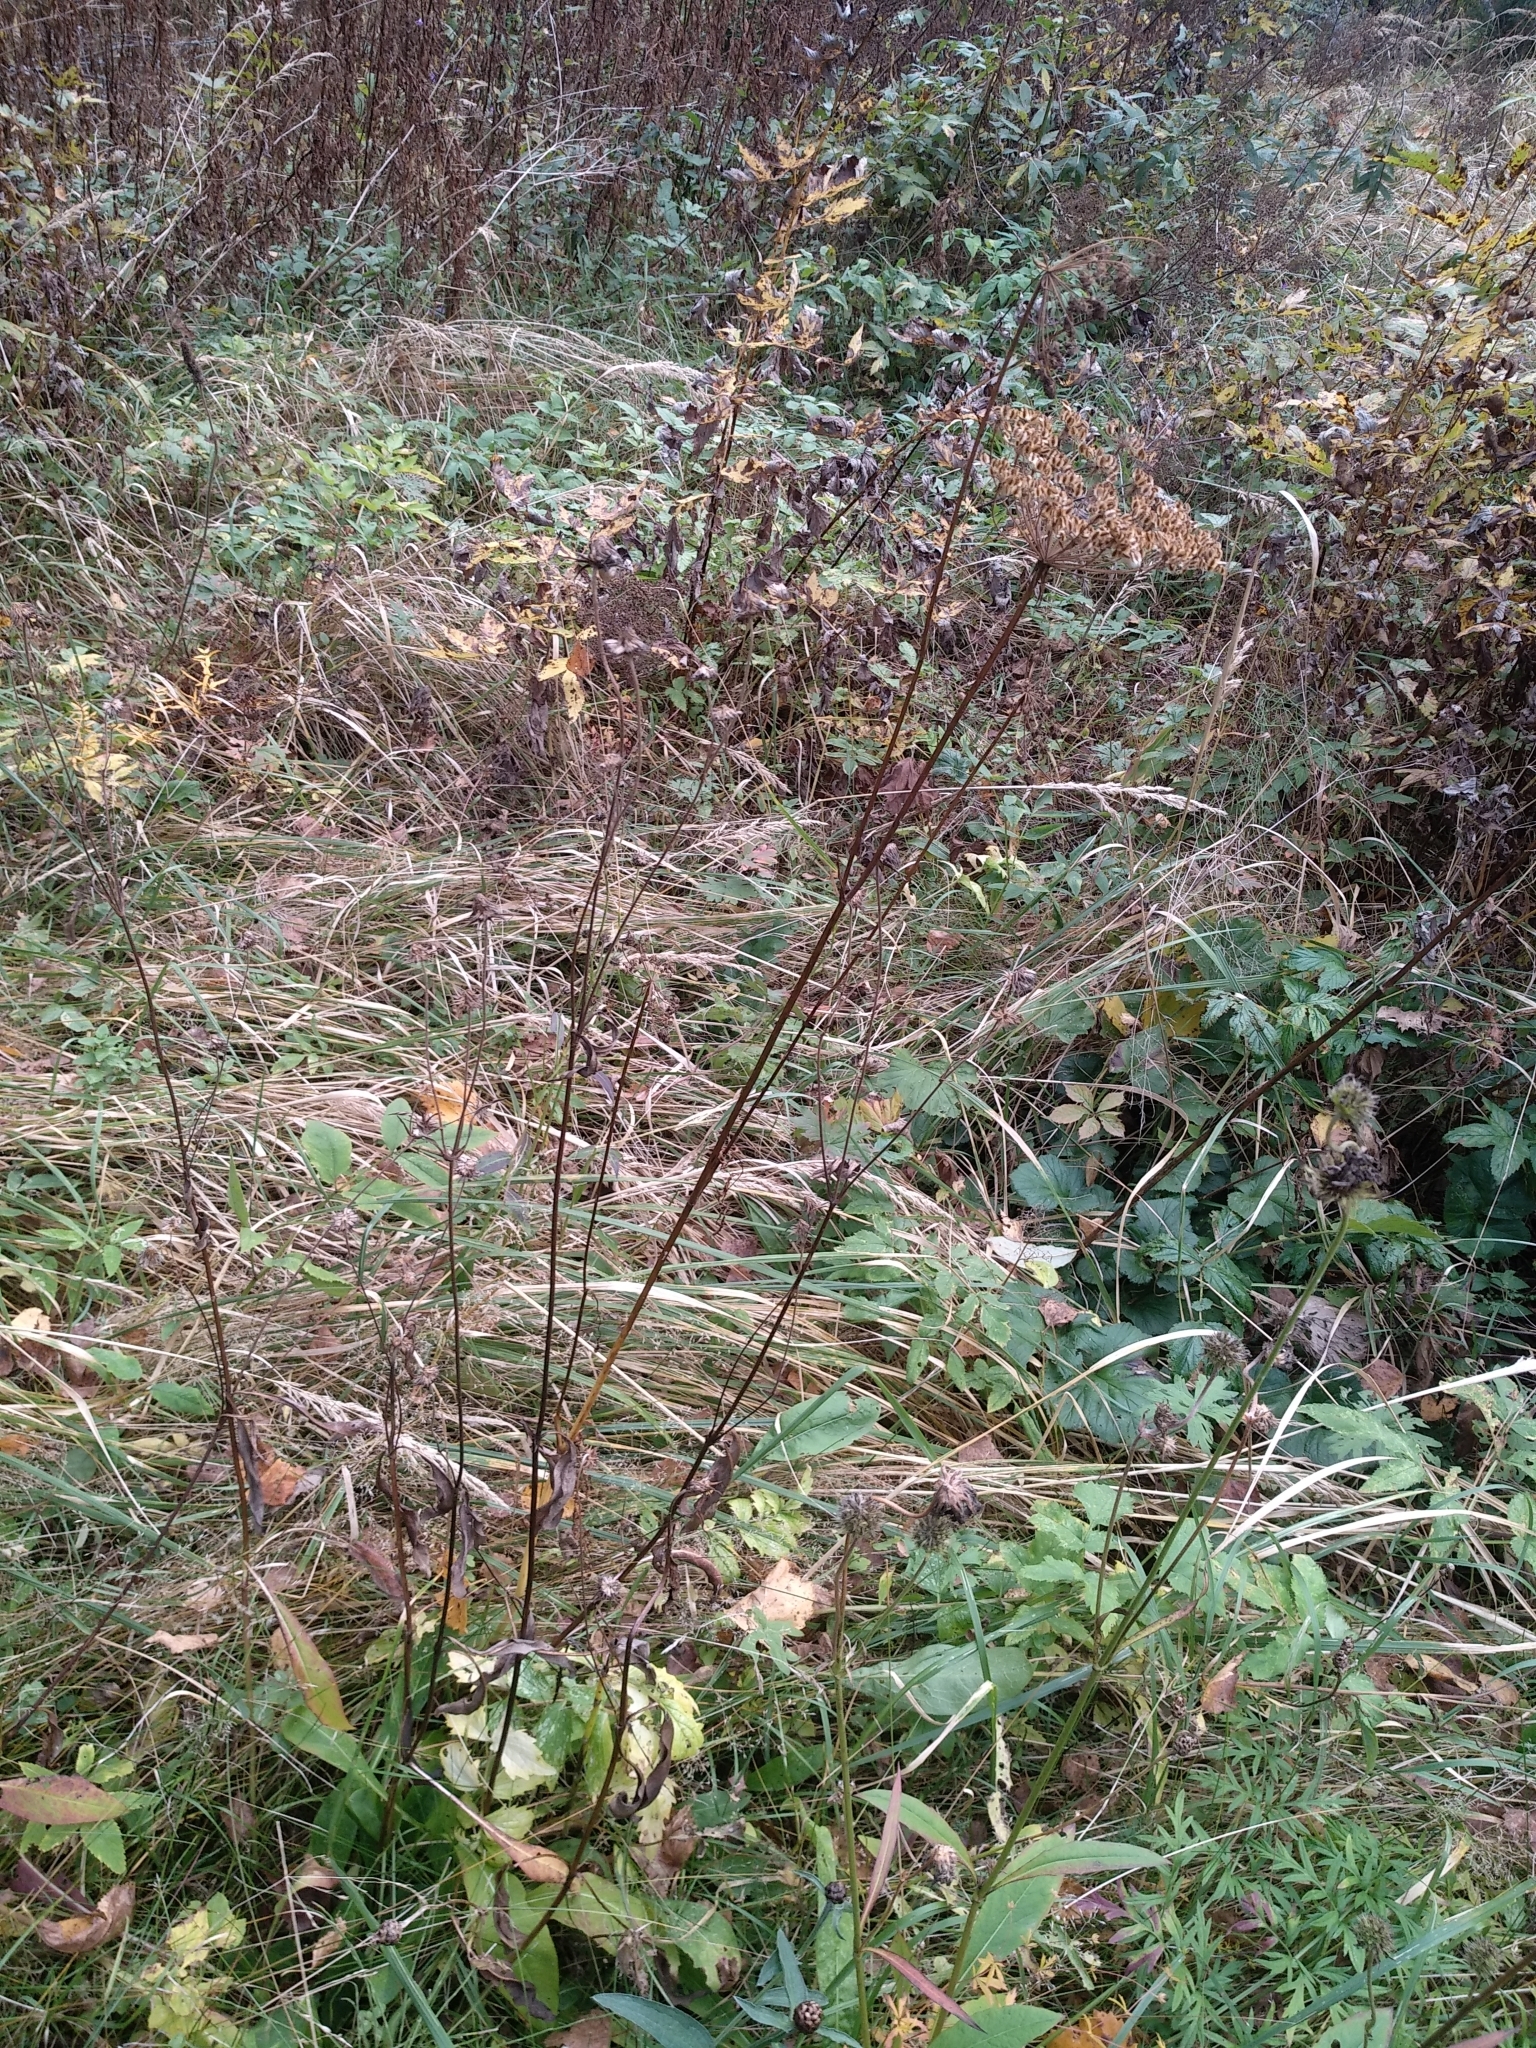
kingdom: Plantae
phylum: Tracheophyta
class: Magnoliopsida
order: Apiales
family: Apiaceae
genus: Silphiodaucus
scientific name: Silphiodaucus prutenicus
